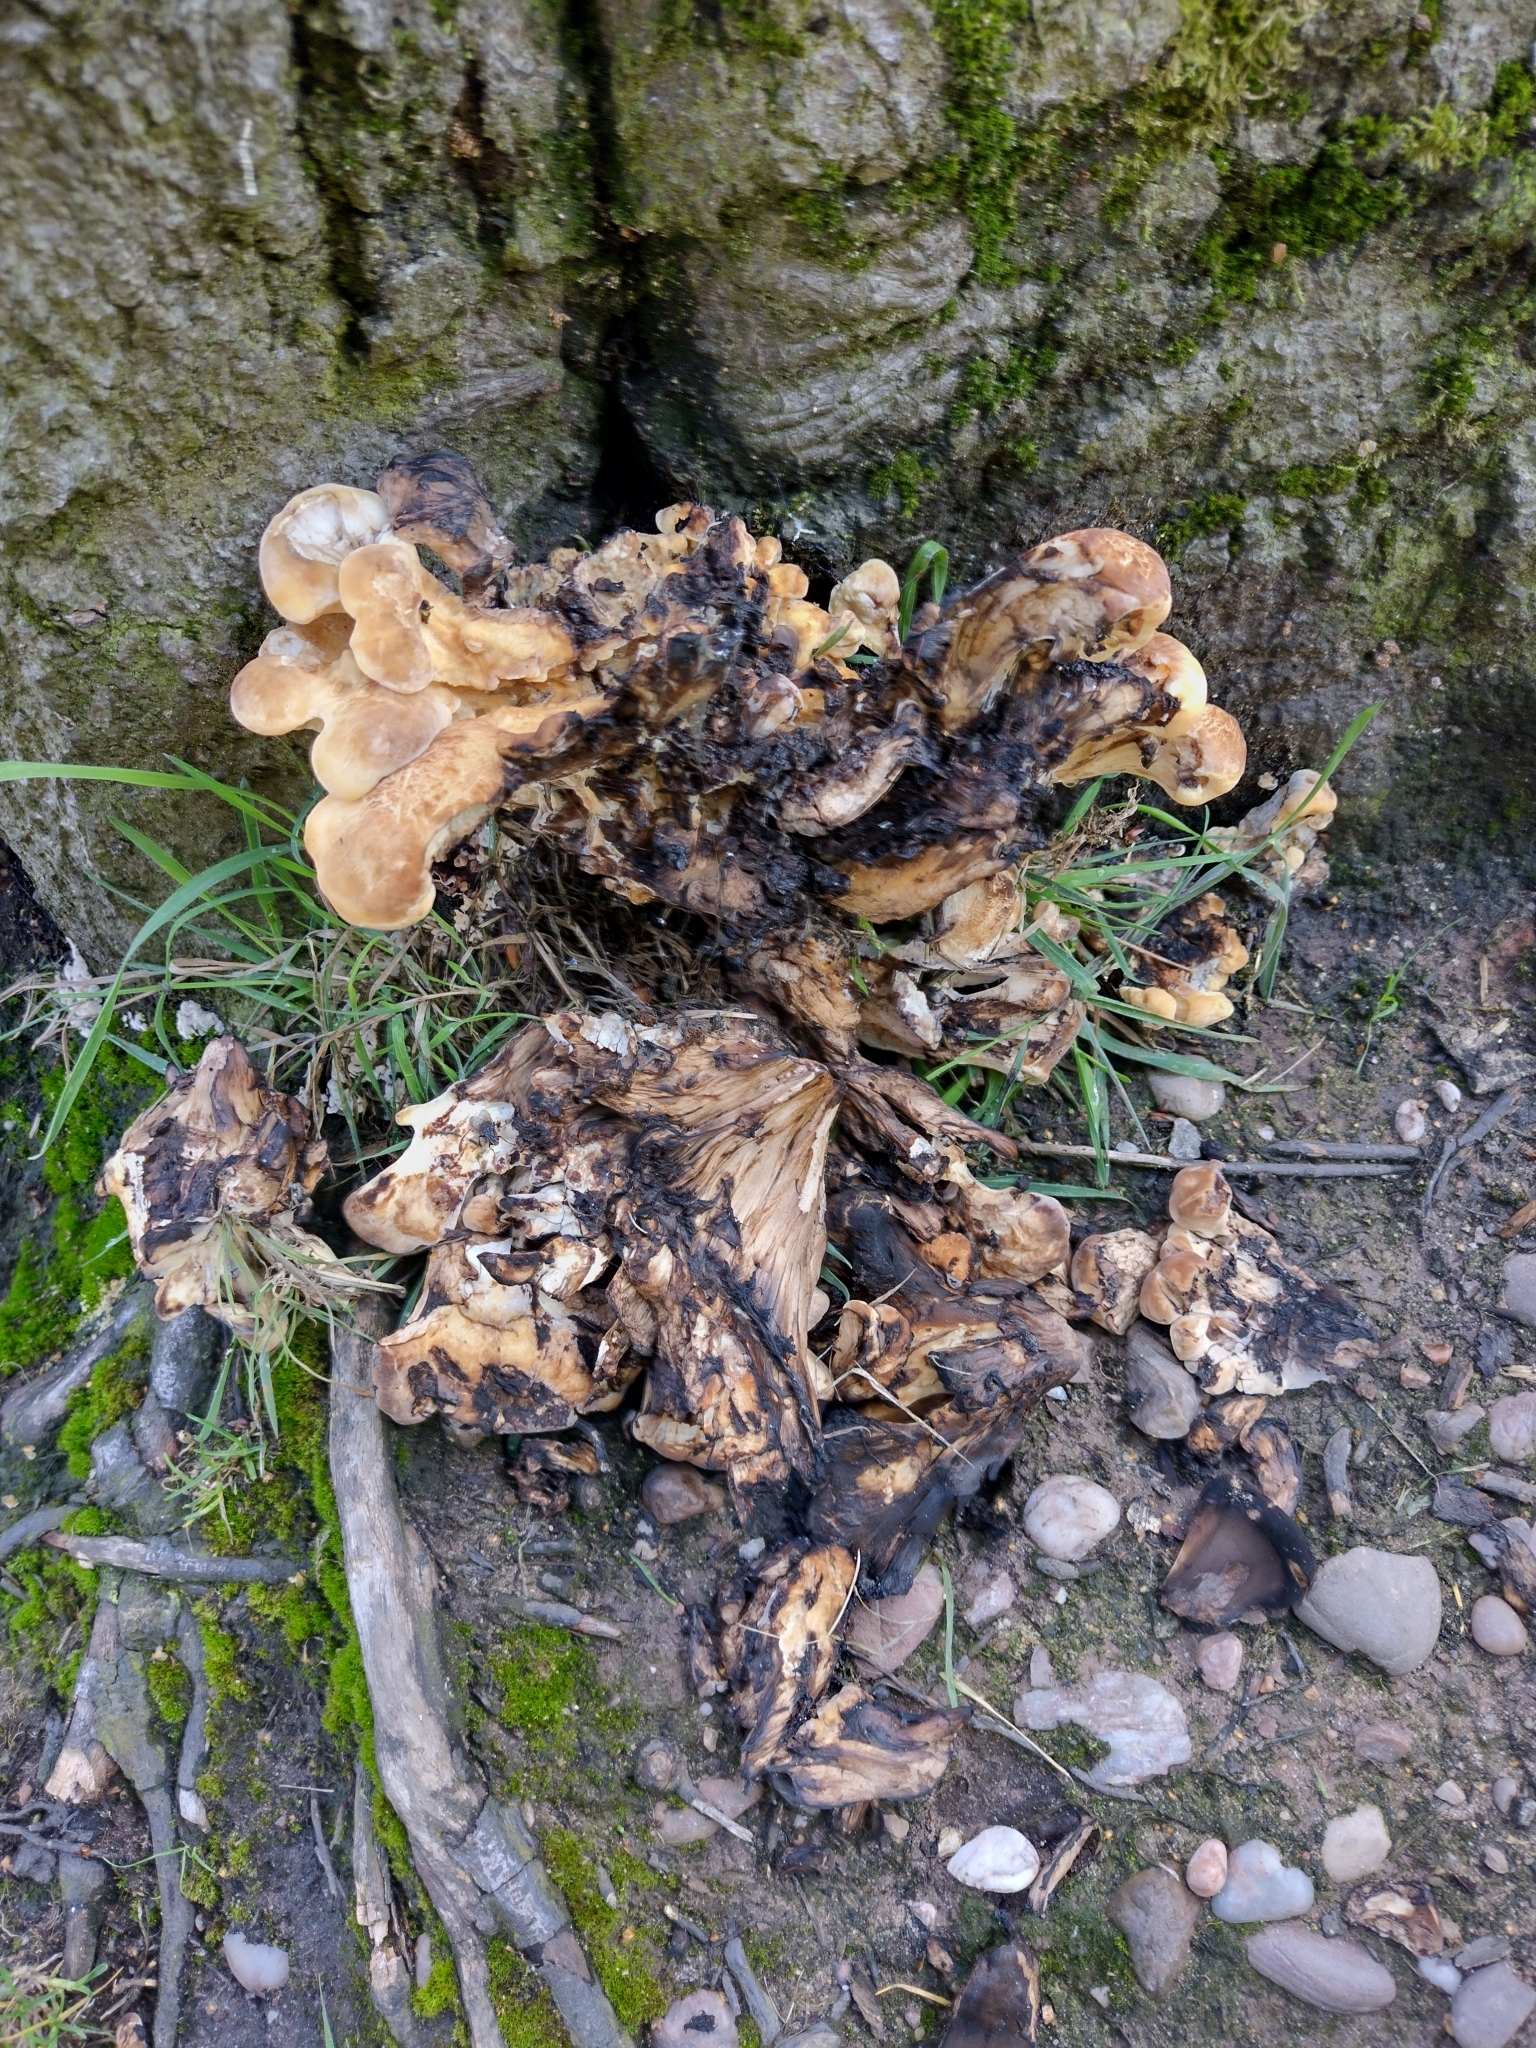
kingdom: Fungi
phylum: Basidiomycota
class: Agaricomycetes
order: Polyporales
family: Meripilaceae
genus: Meripilus
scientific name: Meripilus giganteus
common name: Giant polypore
